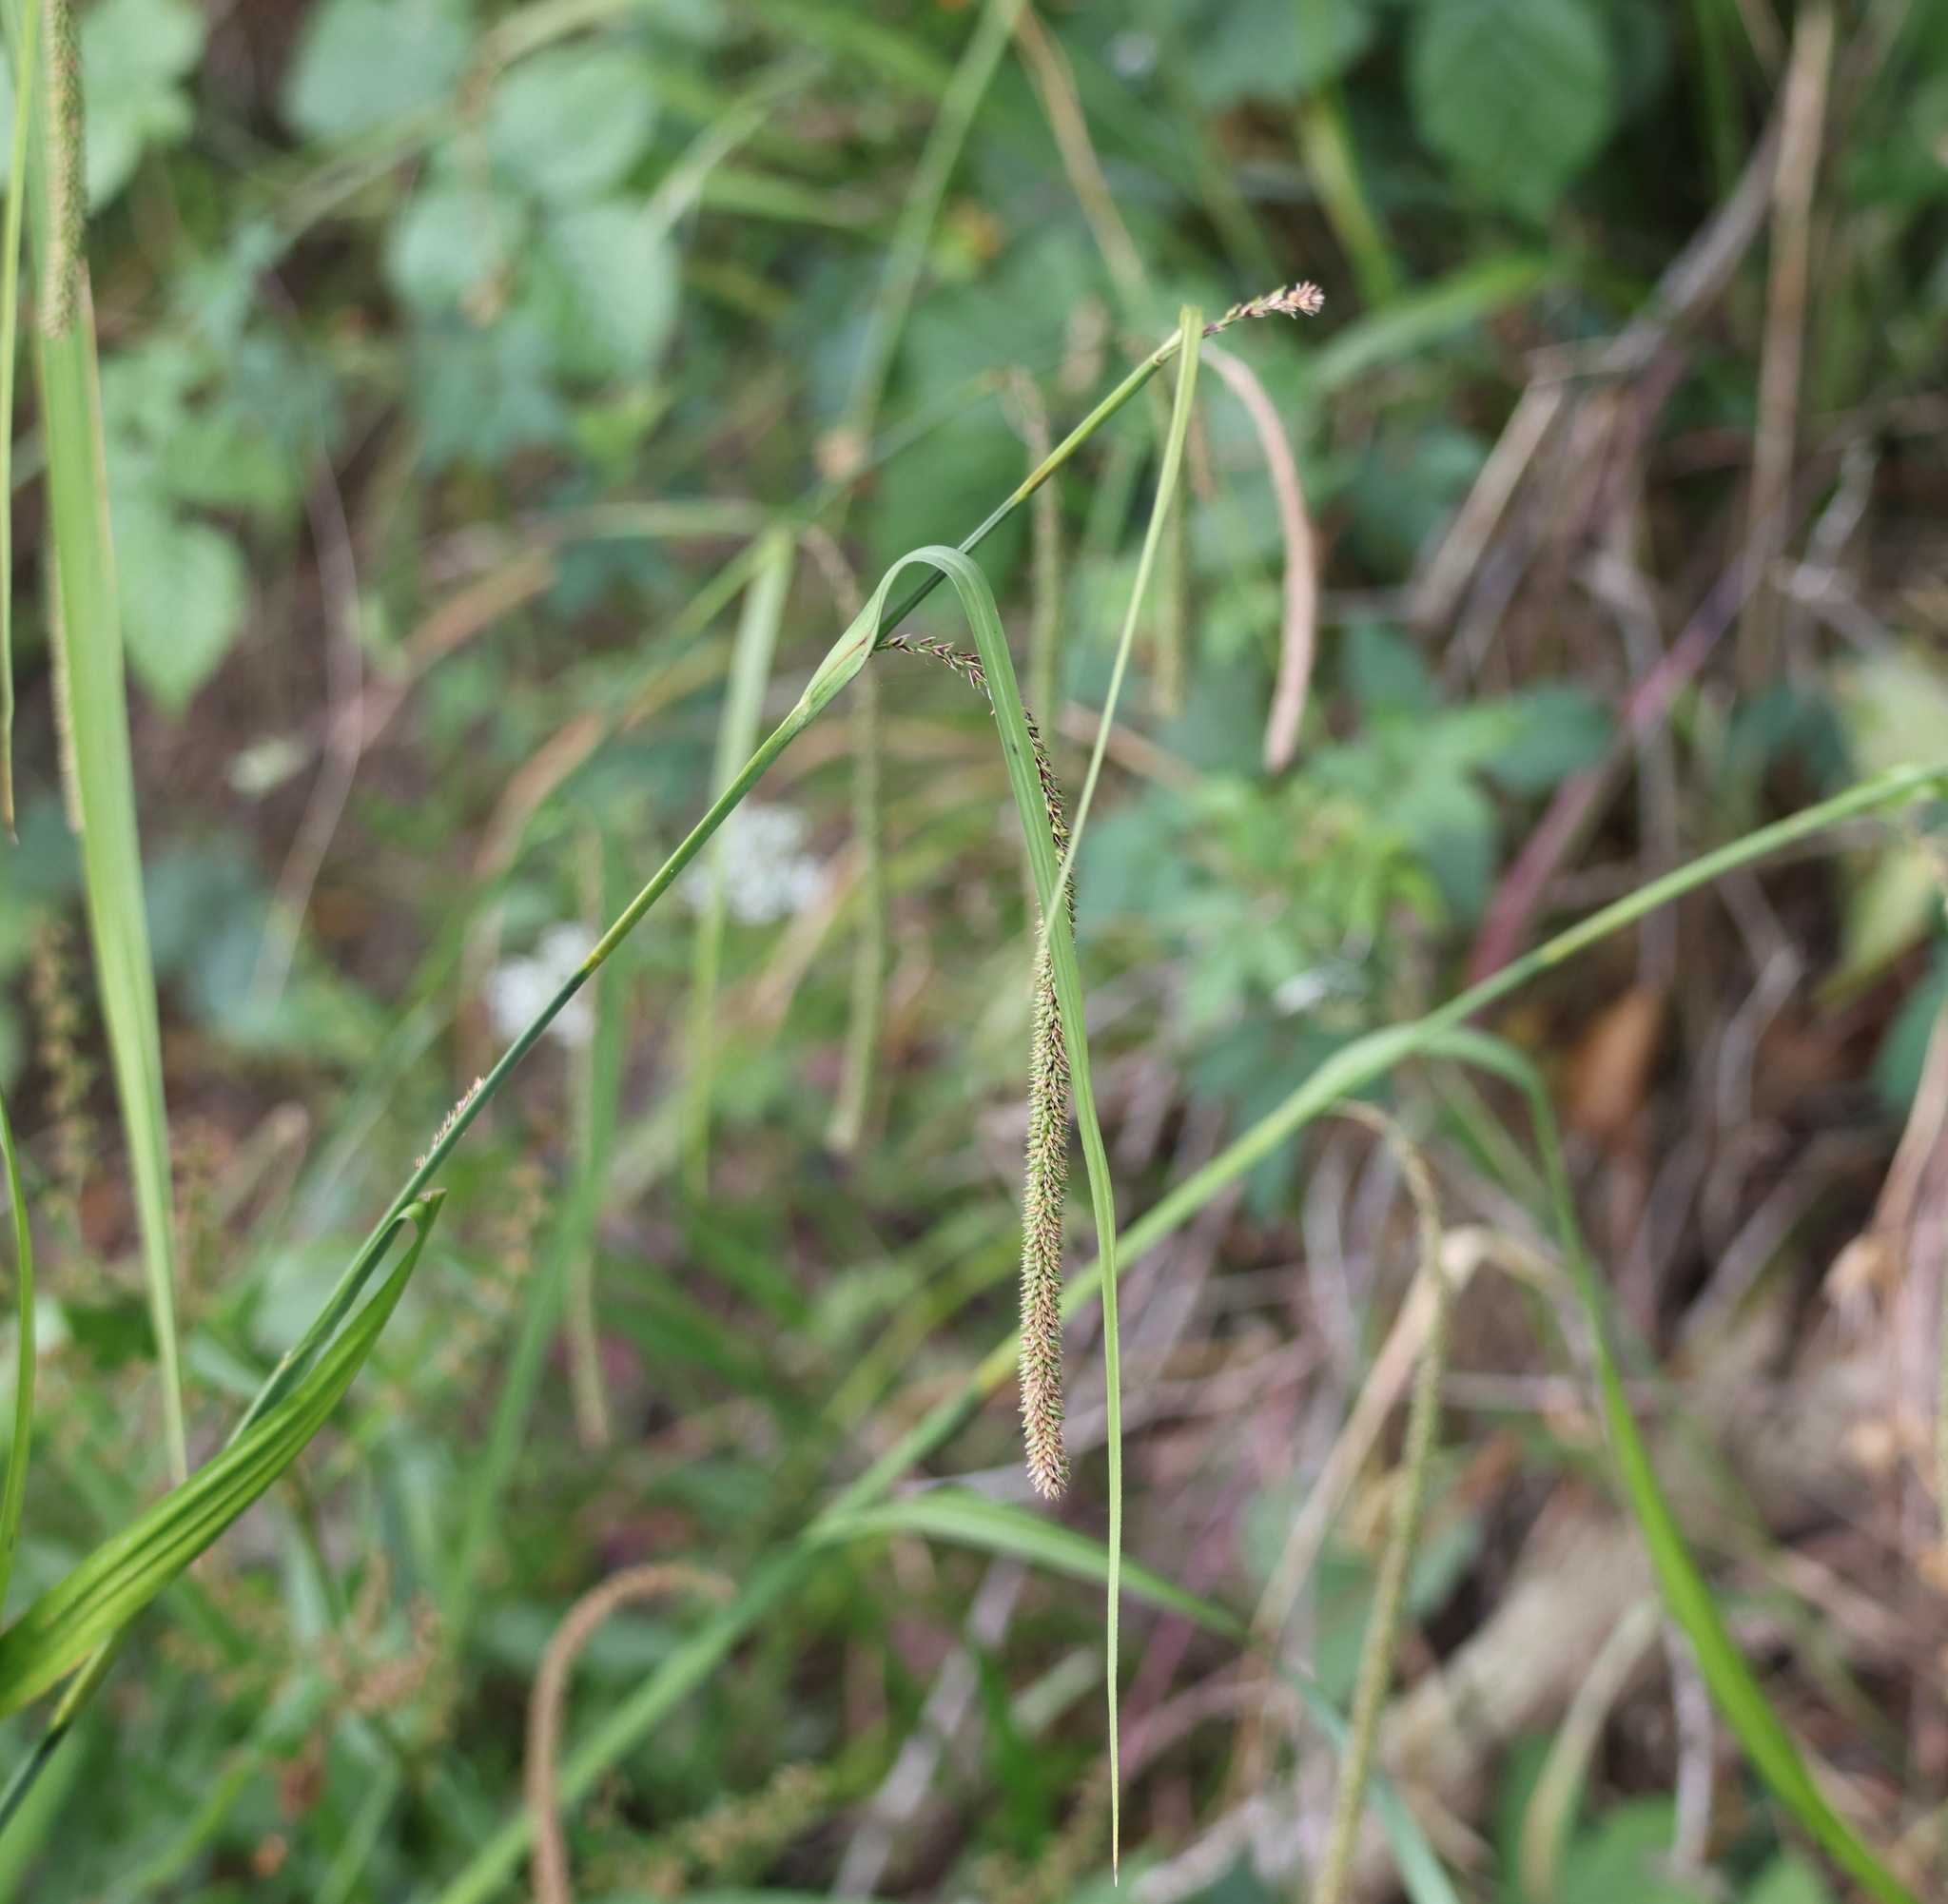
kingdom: Plantae
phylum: Tracheophyta
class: Liliopsida
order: Poales
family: Cyperaceae
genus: Carex
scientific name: Carex pendula
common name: Pendulous sedge
